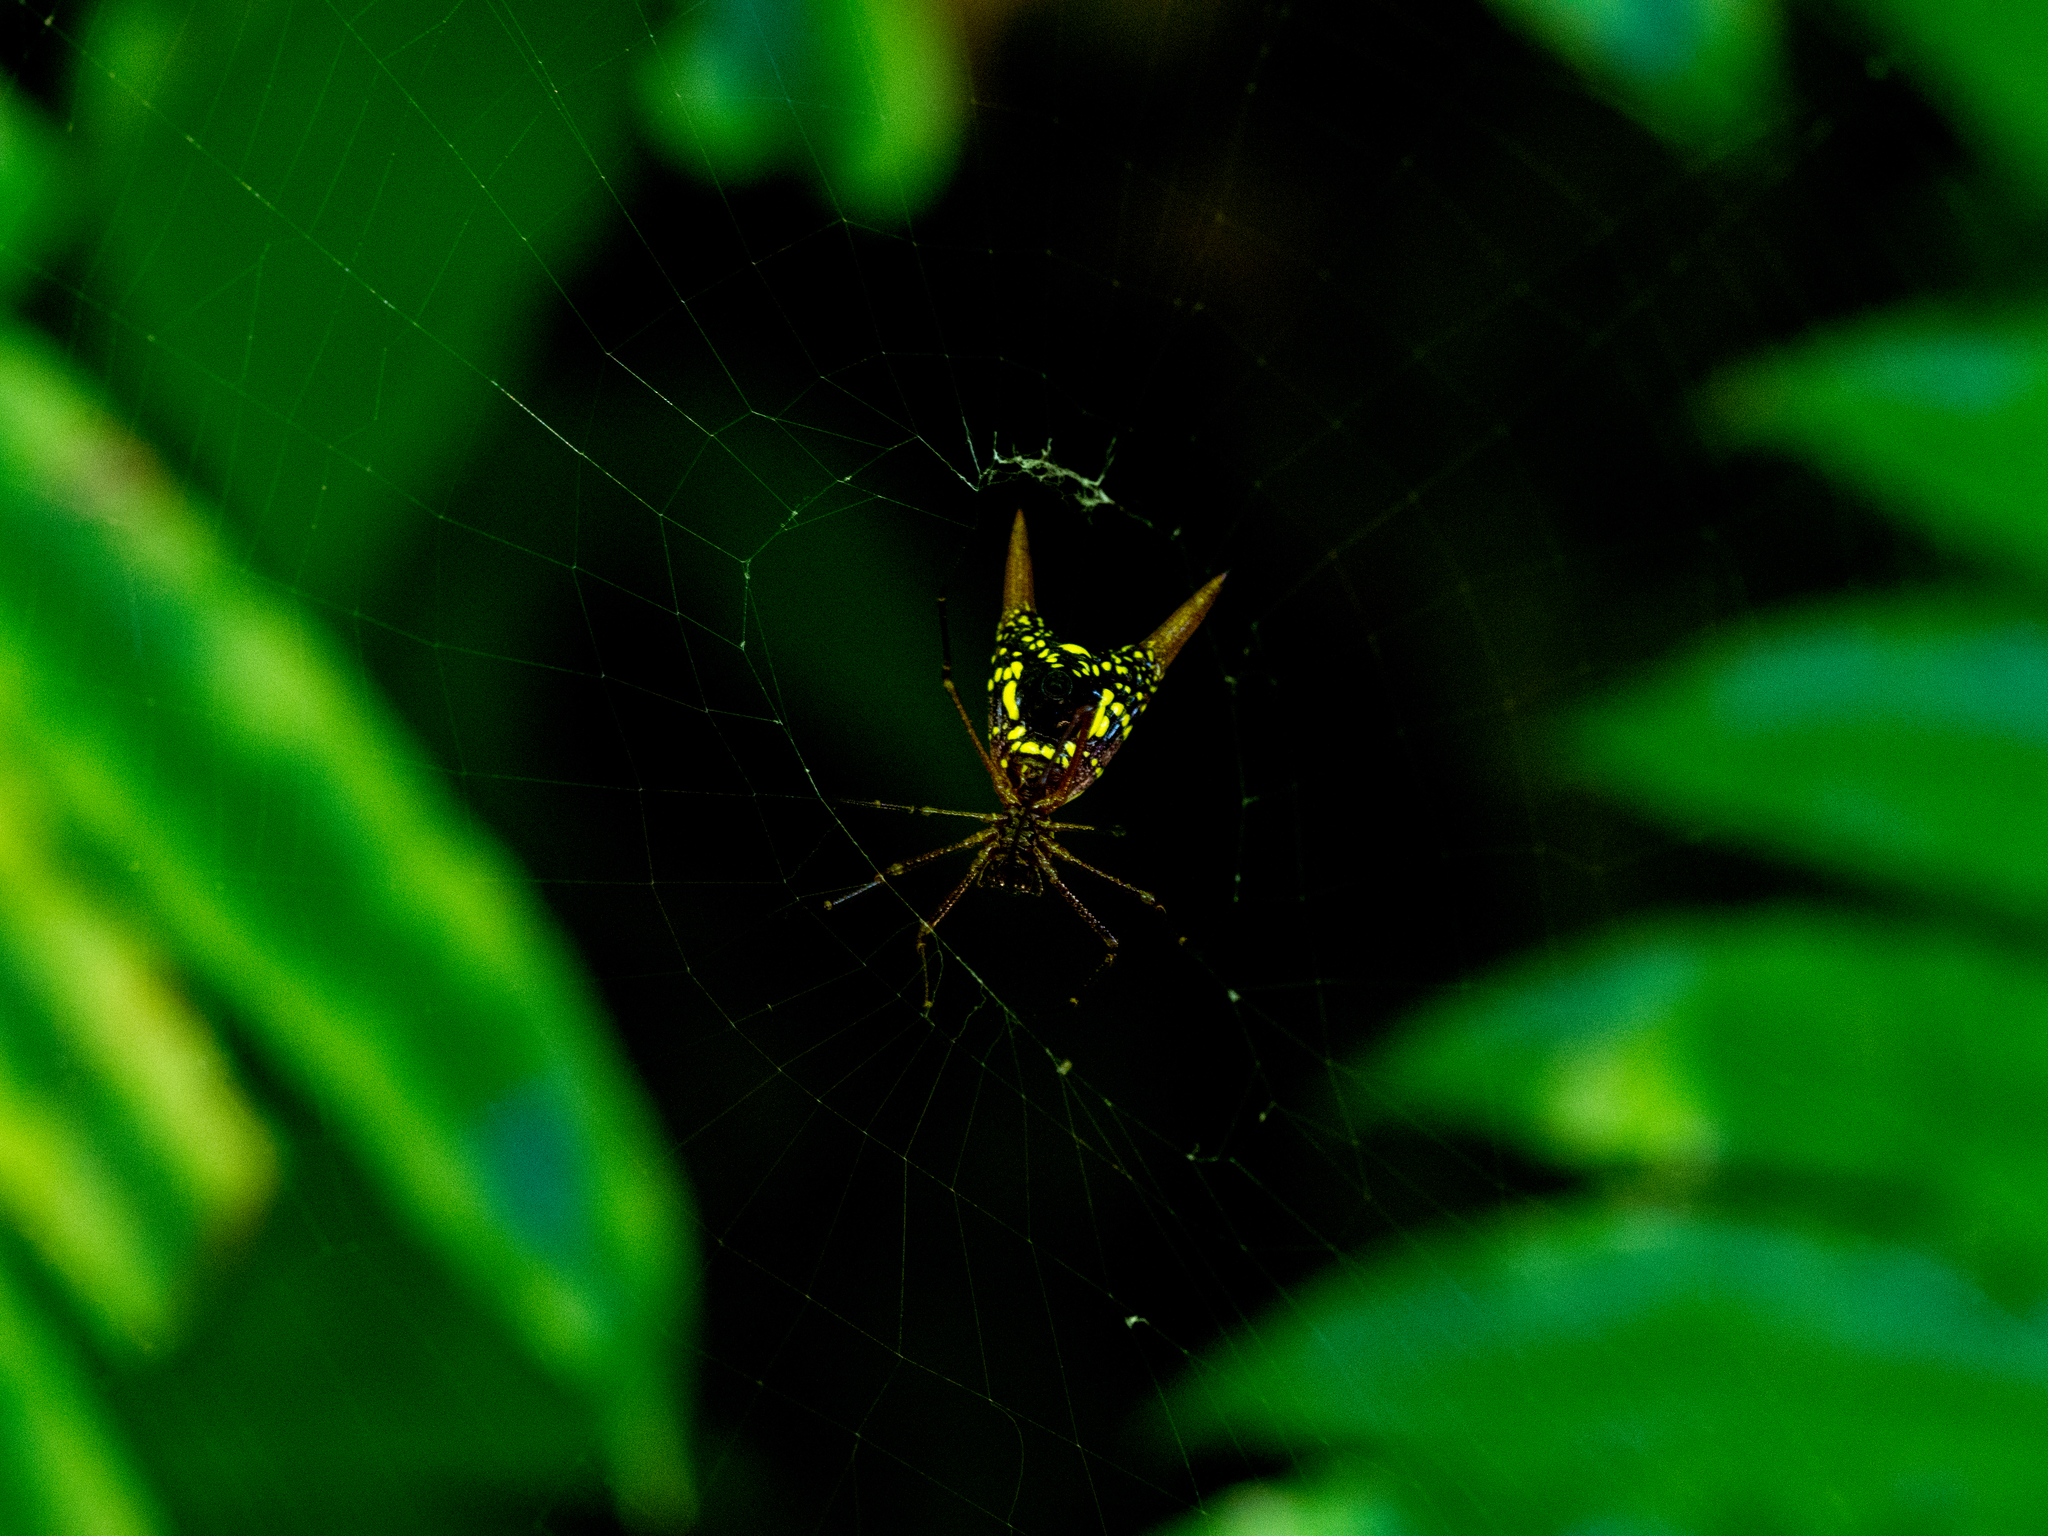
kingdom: Animalia
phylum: Arthropoda
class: Arachnida
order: Araneae
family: Araneidae
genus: Micrathena
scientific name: Micrathena brevipes
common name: Orb weavers
